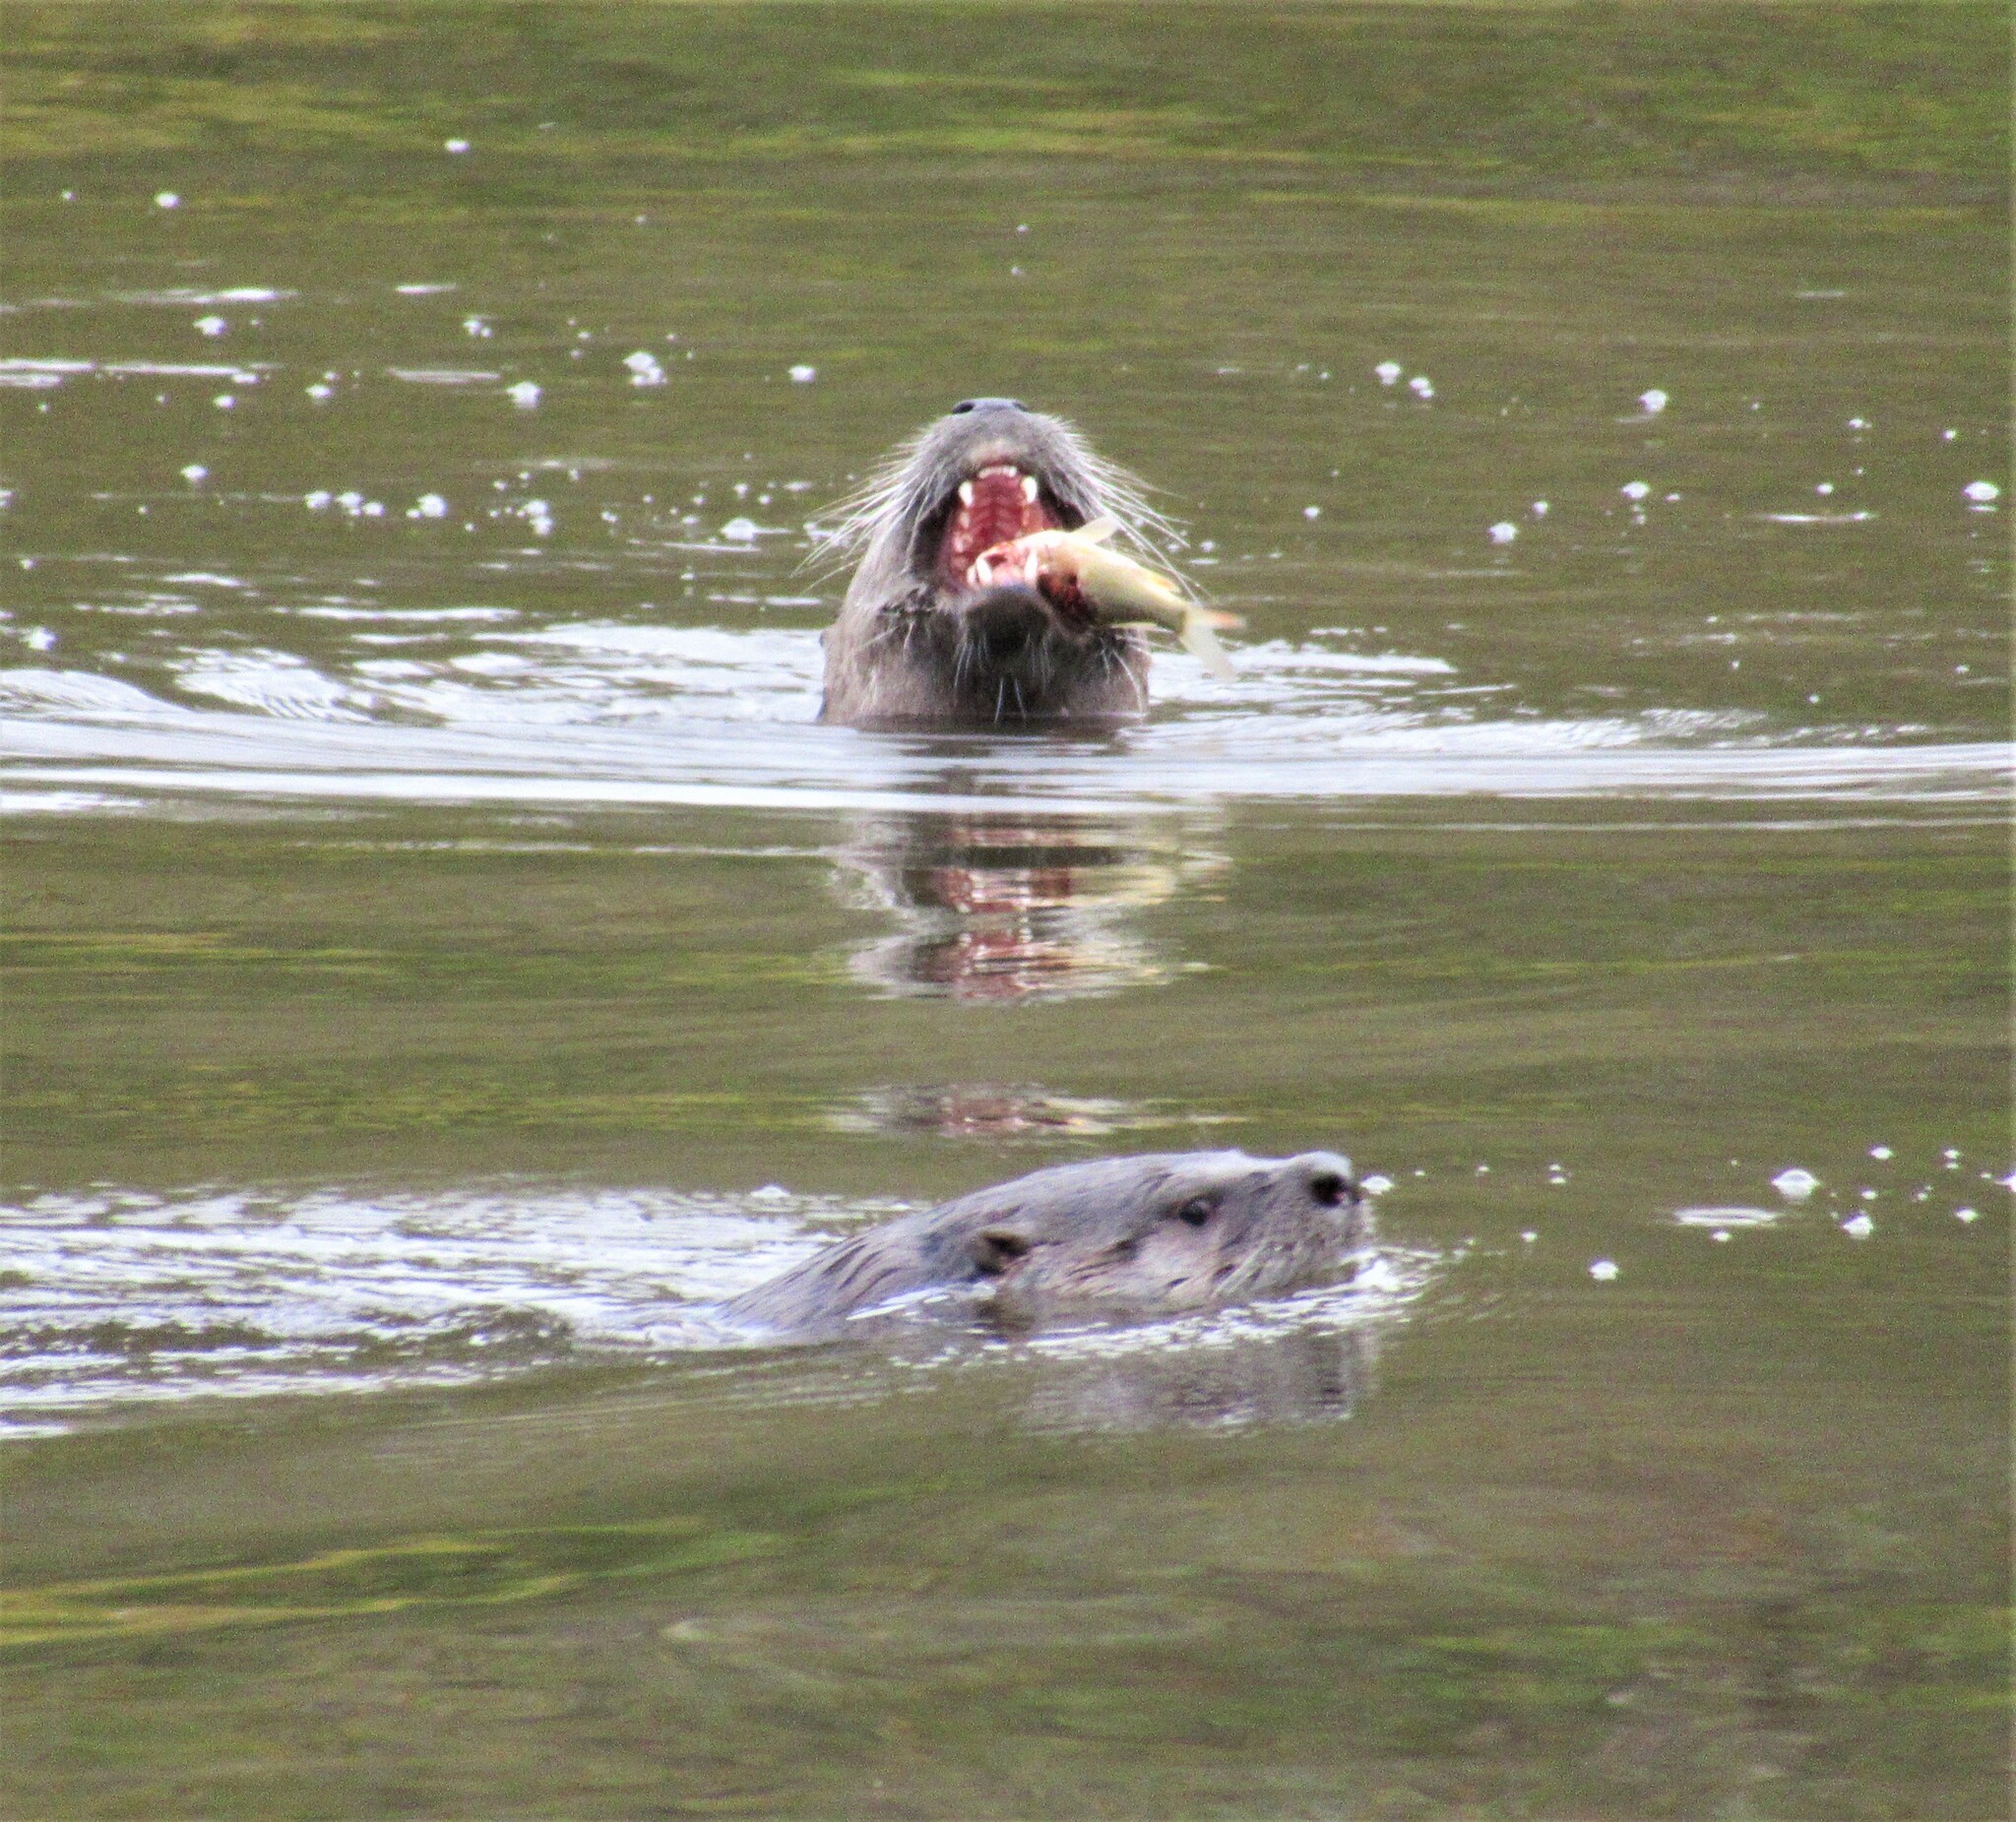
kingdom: Animalia
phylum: Chordata
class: Mammalia
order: Carnivora
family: Mustelidae
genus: Lontra
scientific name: Lontra canadensis
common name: North american river otter
